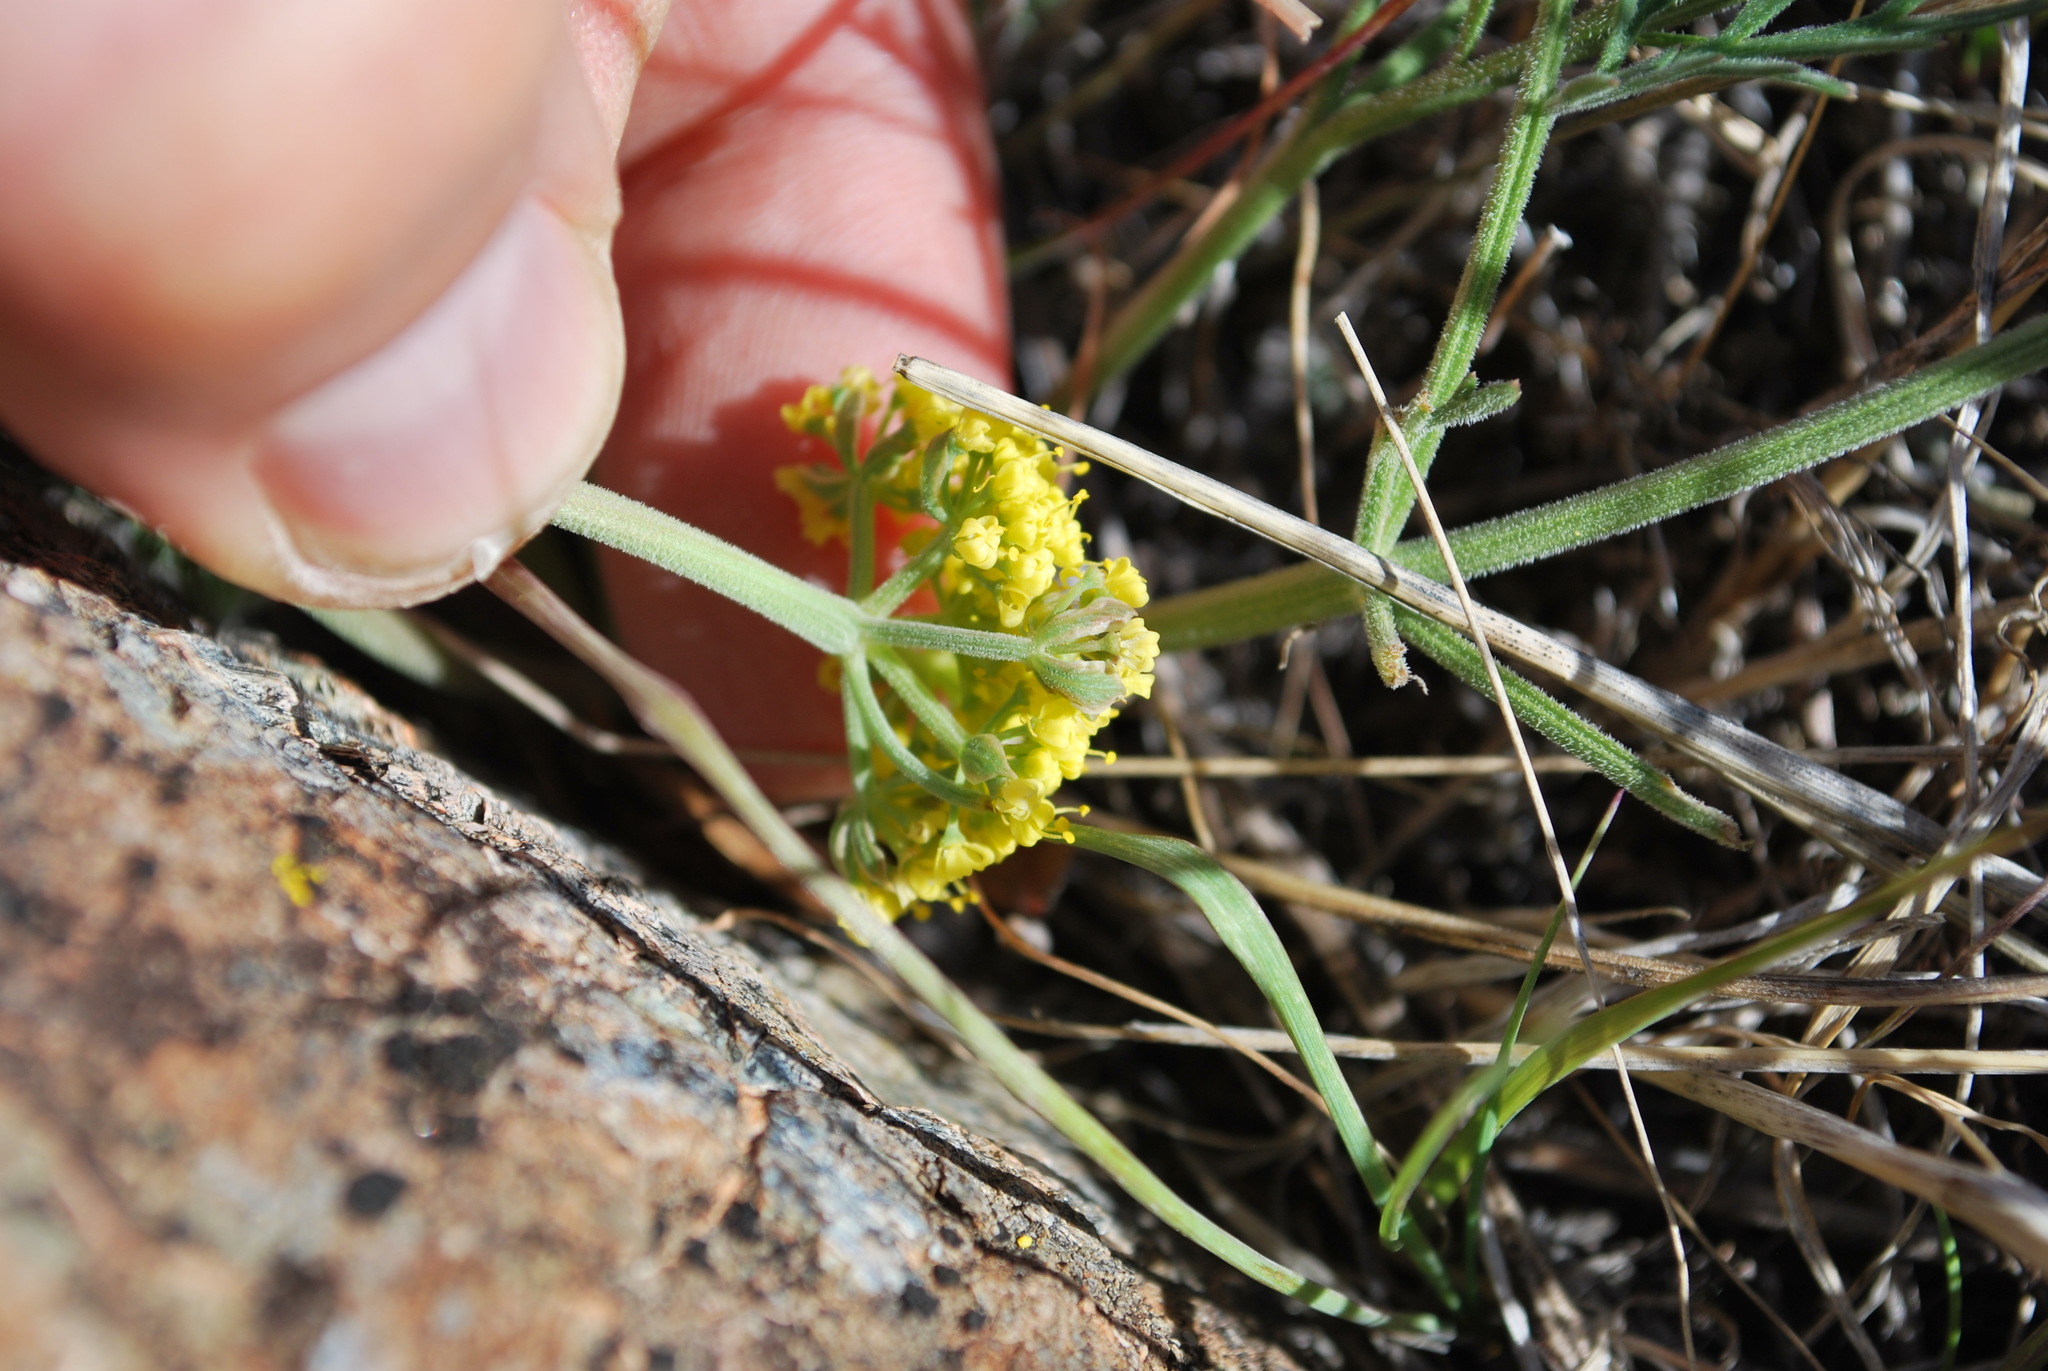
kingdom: Plantae
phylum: Tracheophyta
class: Magnoliopsida
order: Apiales
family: Apiaceae
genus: Lomatium
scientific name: Lomatium utriculatum
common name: Fine-leaf desert-parsley
